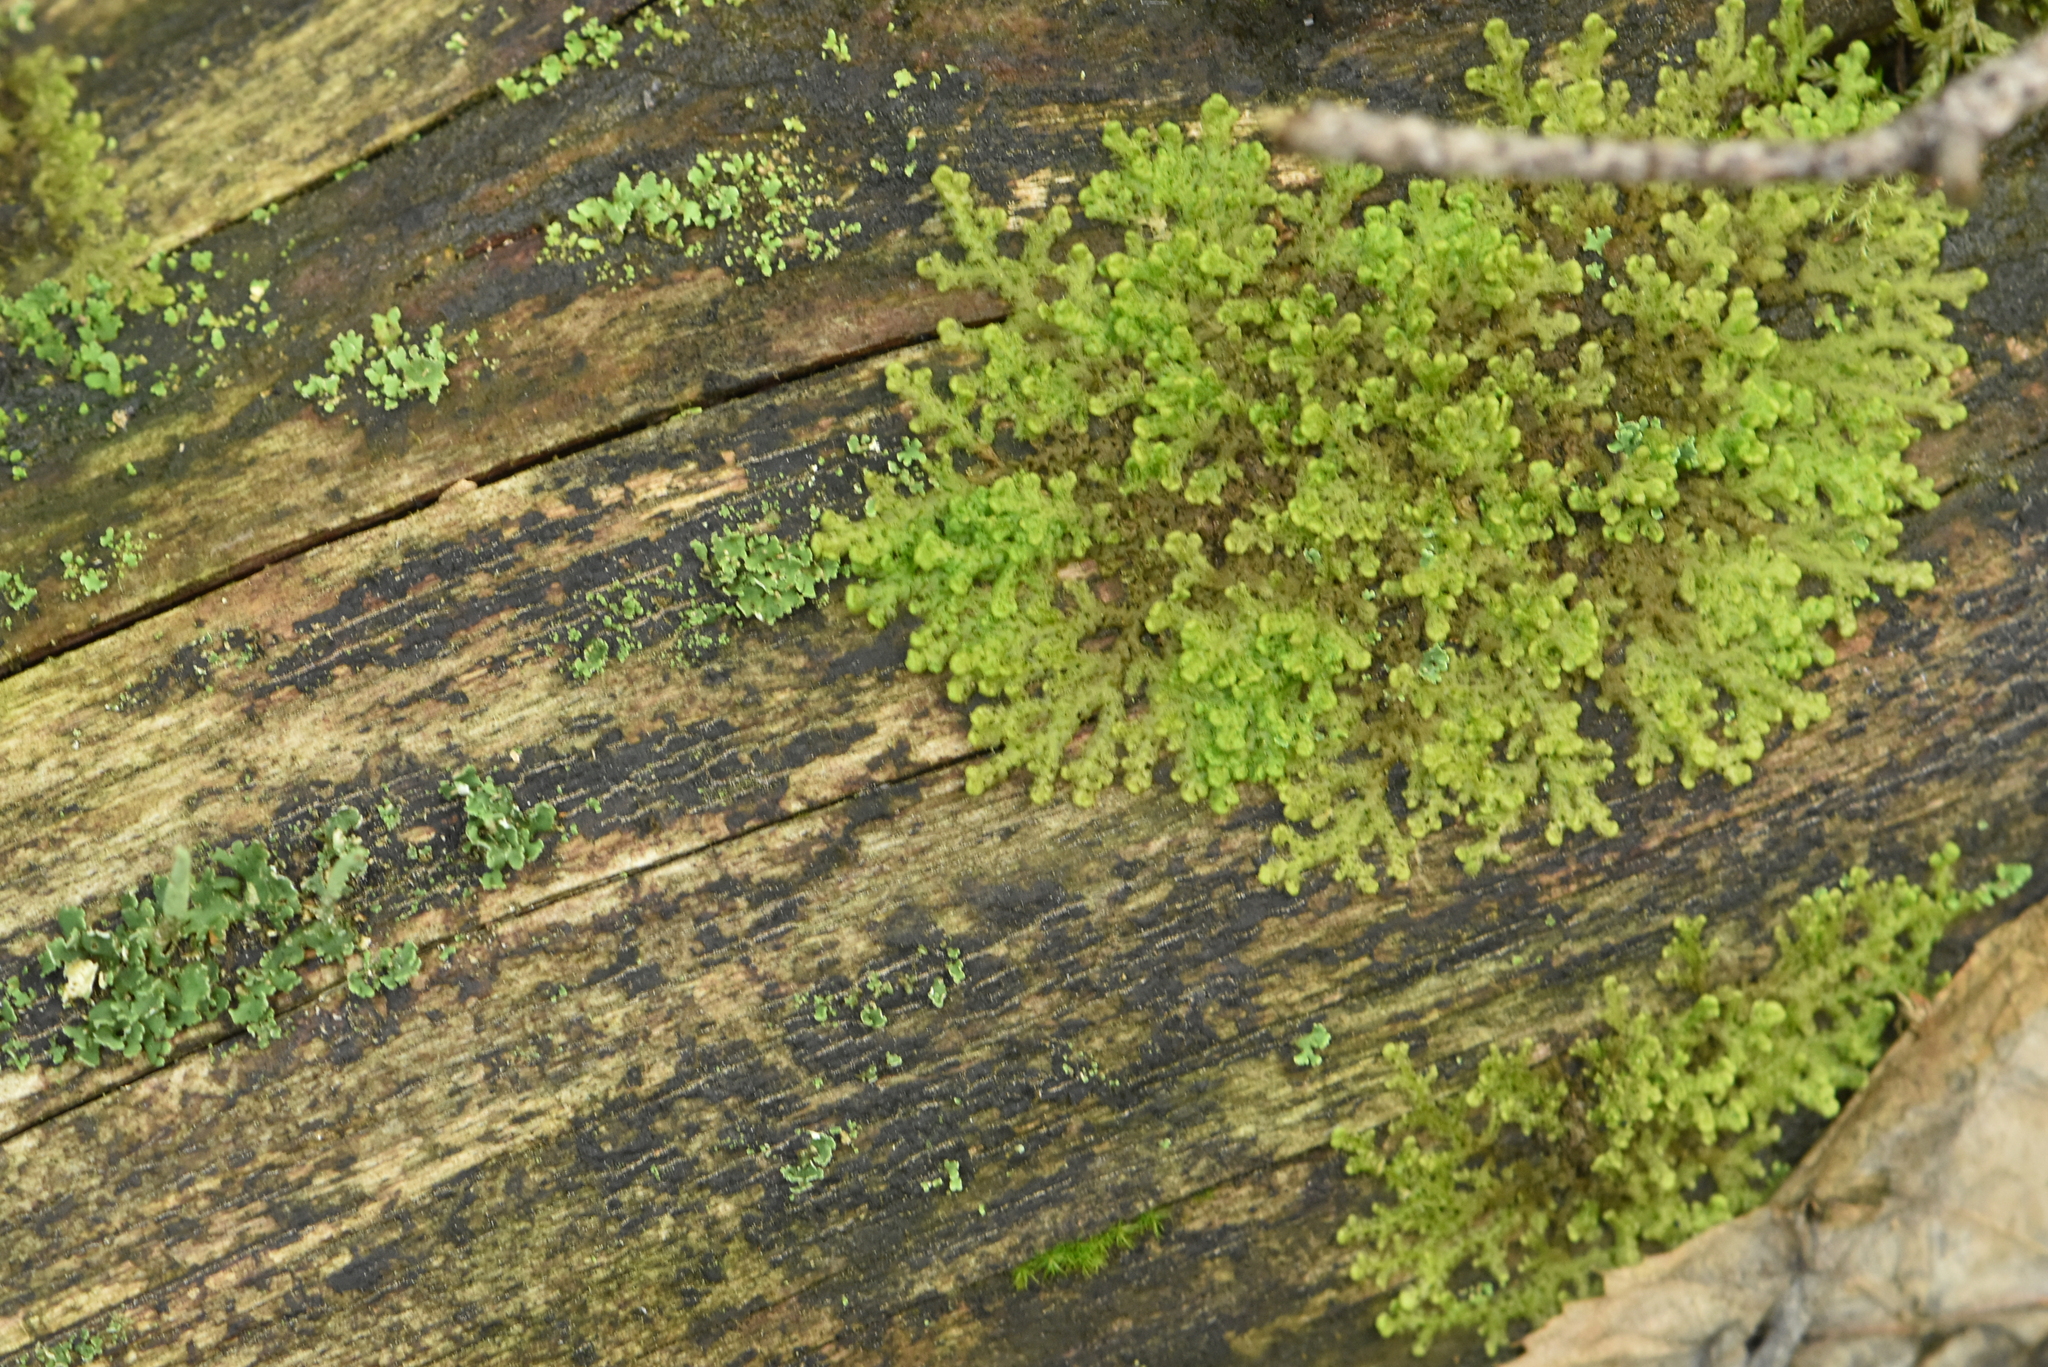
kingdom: Plantae
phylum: Marchantiophyta
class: Jungermanniopsida
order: Ptilidiales
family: Ptilidiaceae
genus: Ptilidium
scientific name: Ptilidium pulcherrimum
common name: Tree fringewort
